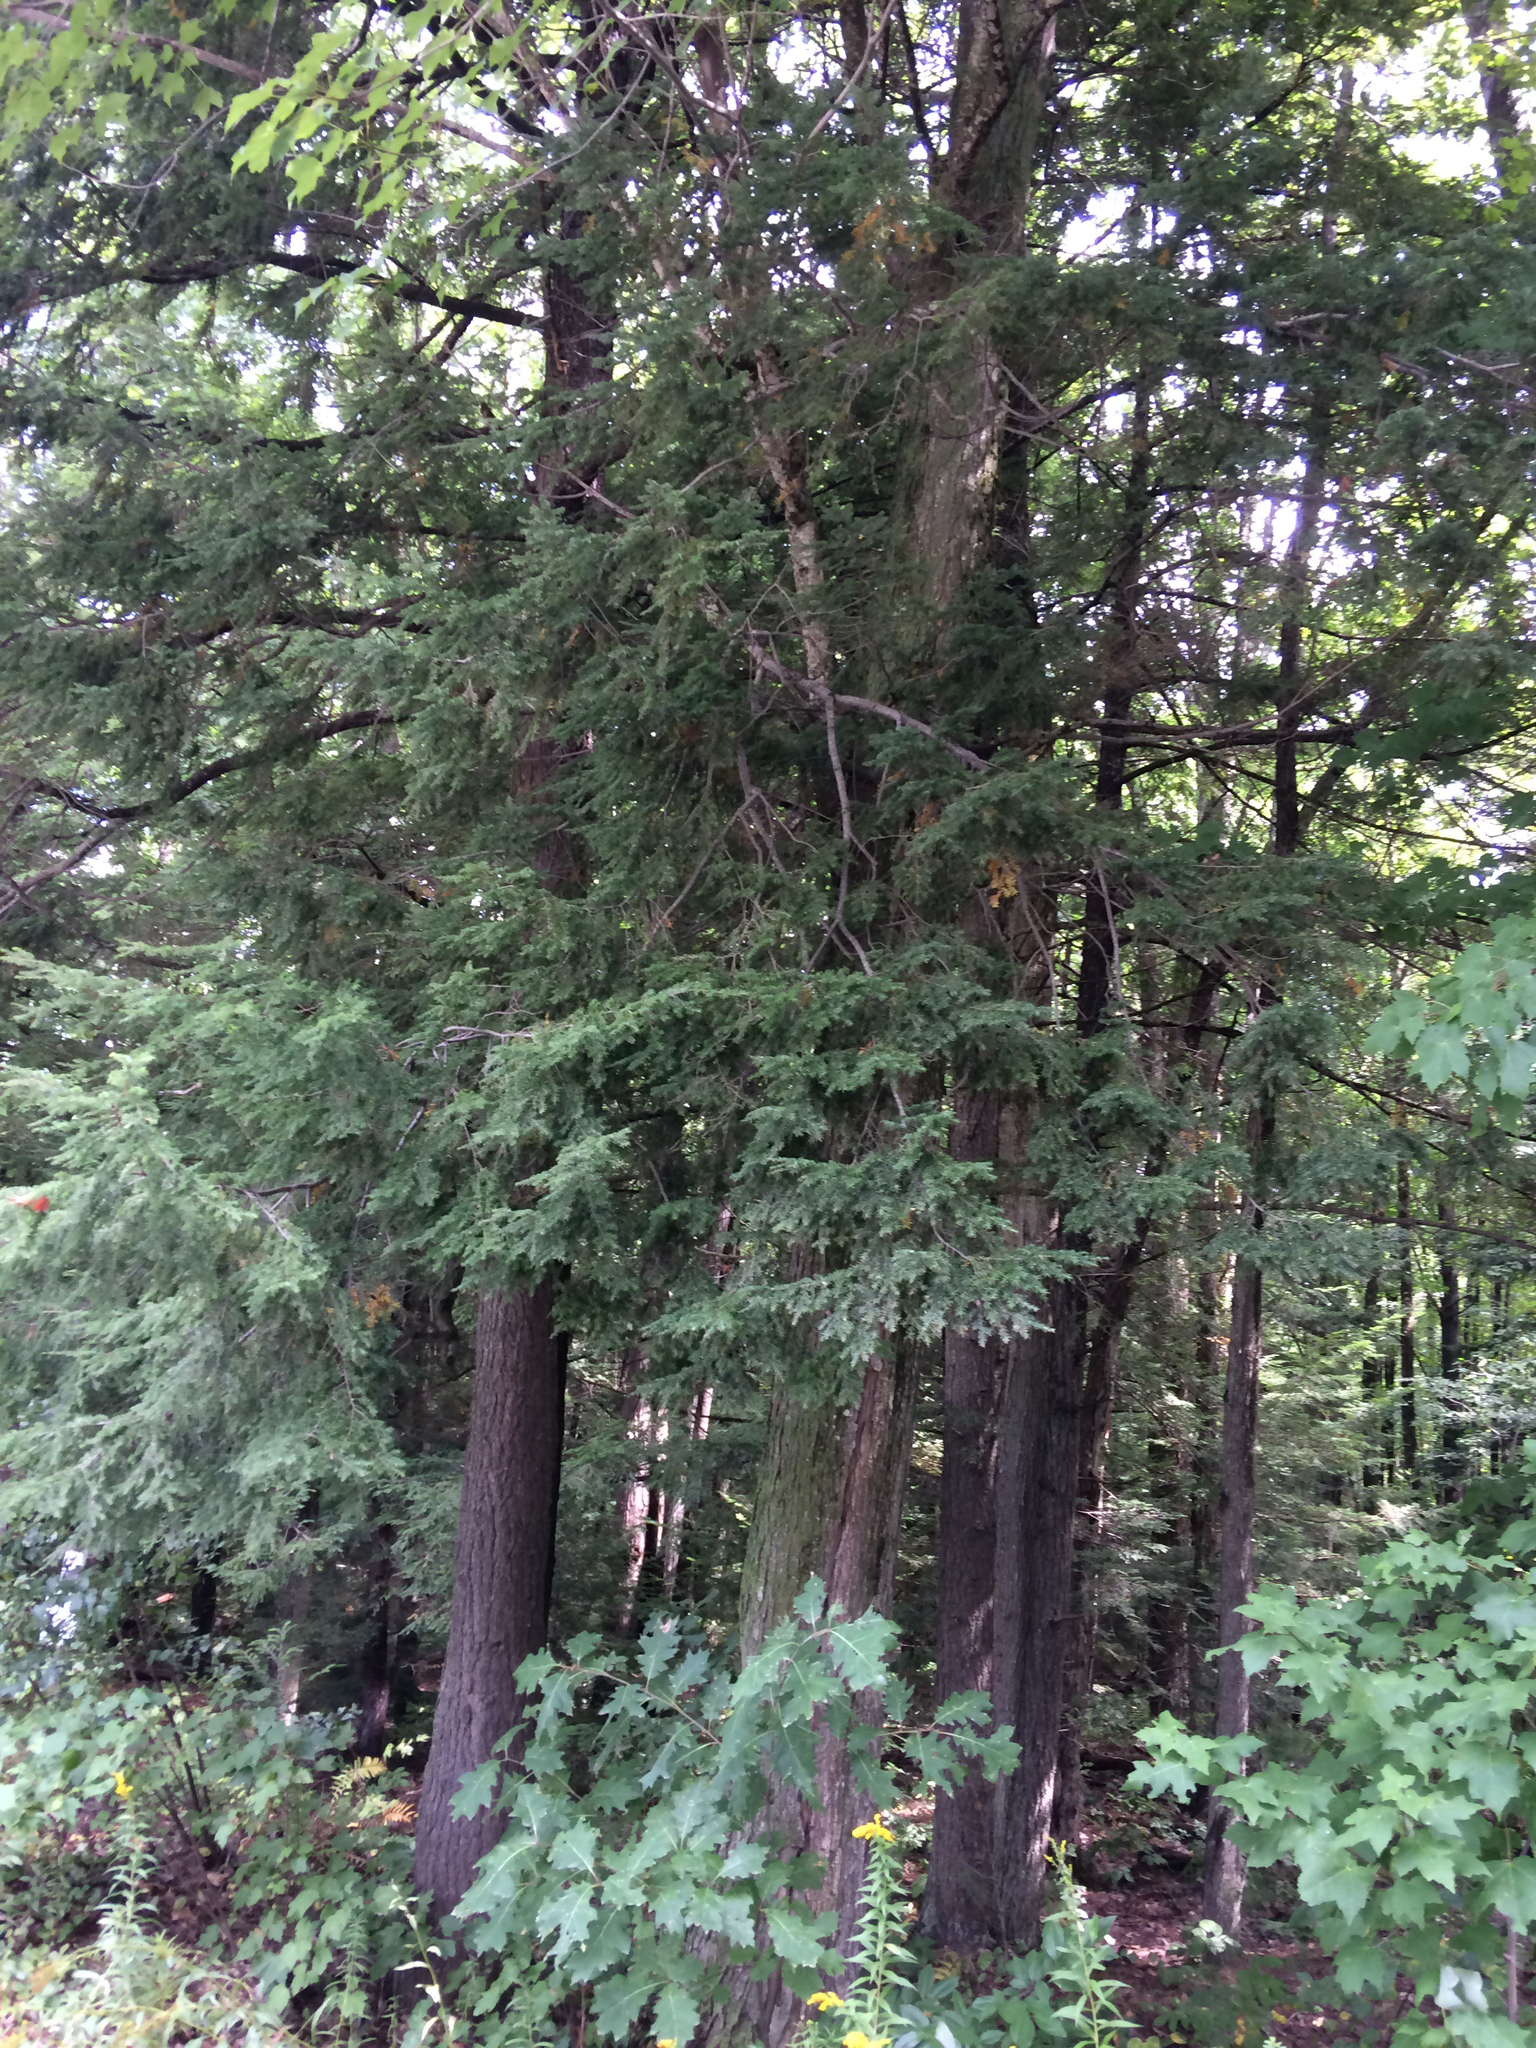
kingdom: Plantae
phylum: Tracheophyta
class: Pinopsida
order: Pinales
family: Pinaceae
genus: Tsuga
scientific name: Tsuga canadensis
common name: Eastern hemlock
